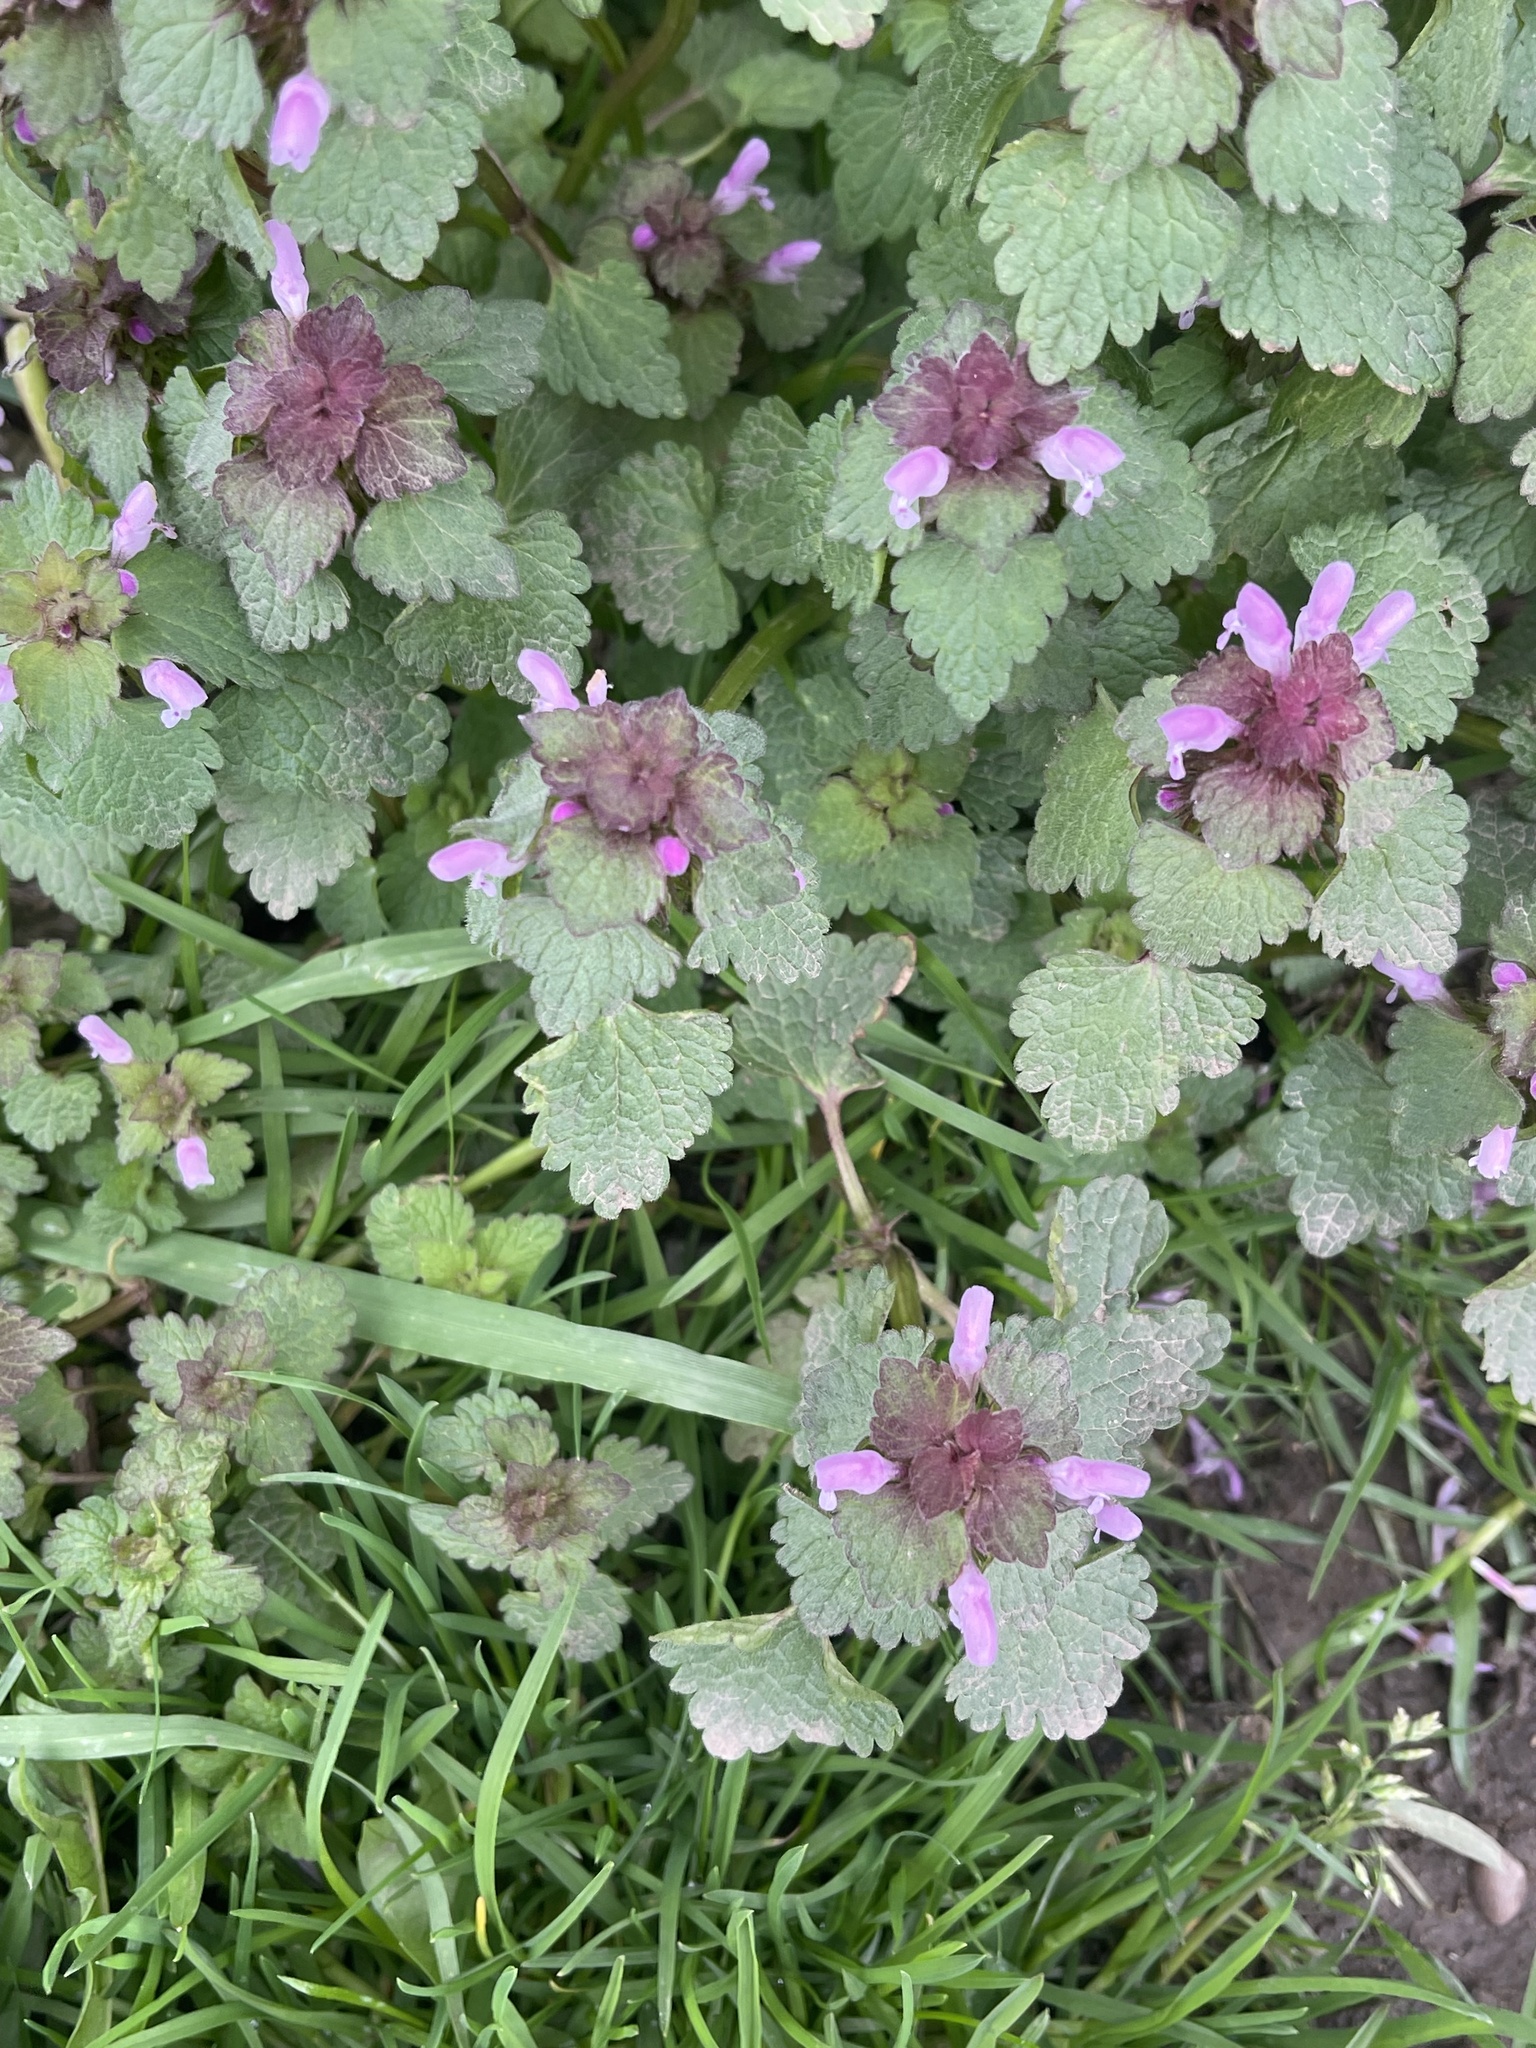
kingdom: Plantae
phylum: Tracheophyta
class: Magnoliopsida
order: Lamiales
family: Lamiaceae
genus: Lamium
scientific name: Lamium purpureum
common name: Red dead-nettle
